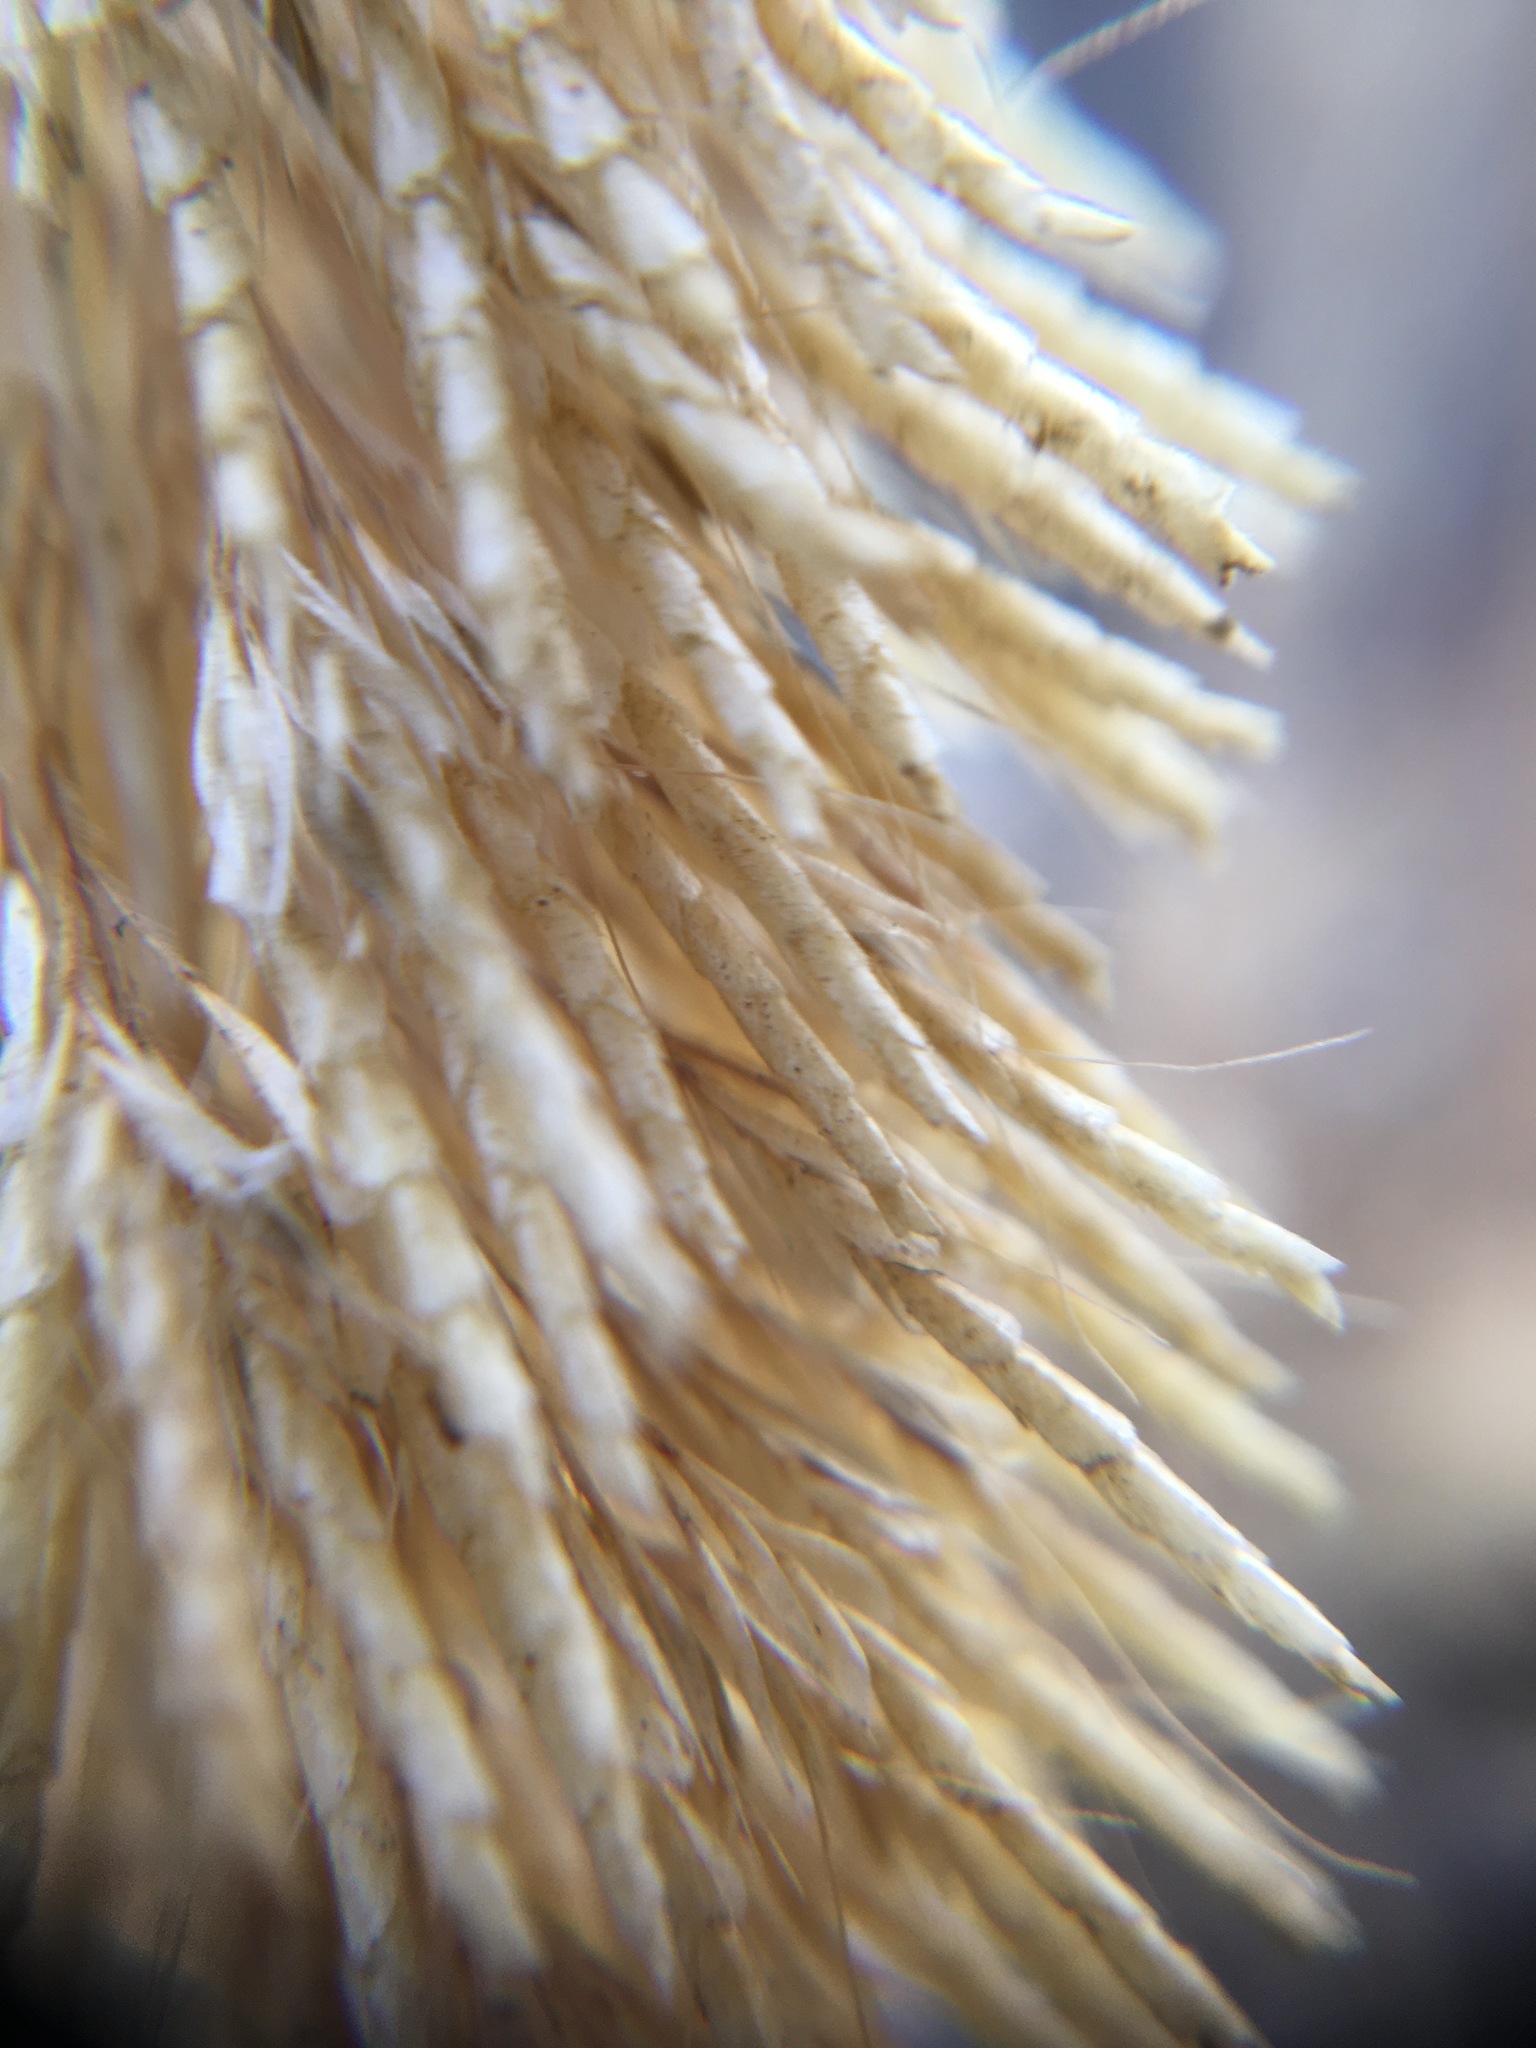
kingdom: Plantae
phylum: Tracheophyta
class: Liliopsida
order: Poales
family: Poaceae
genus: Lamarckia
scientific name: Lamarckia aurea
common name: Golden dog's-tail
